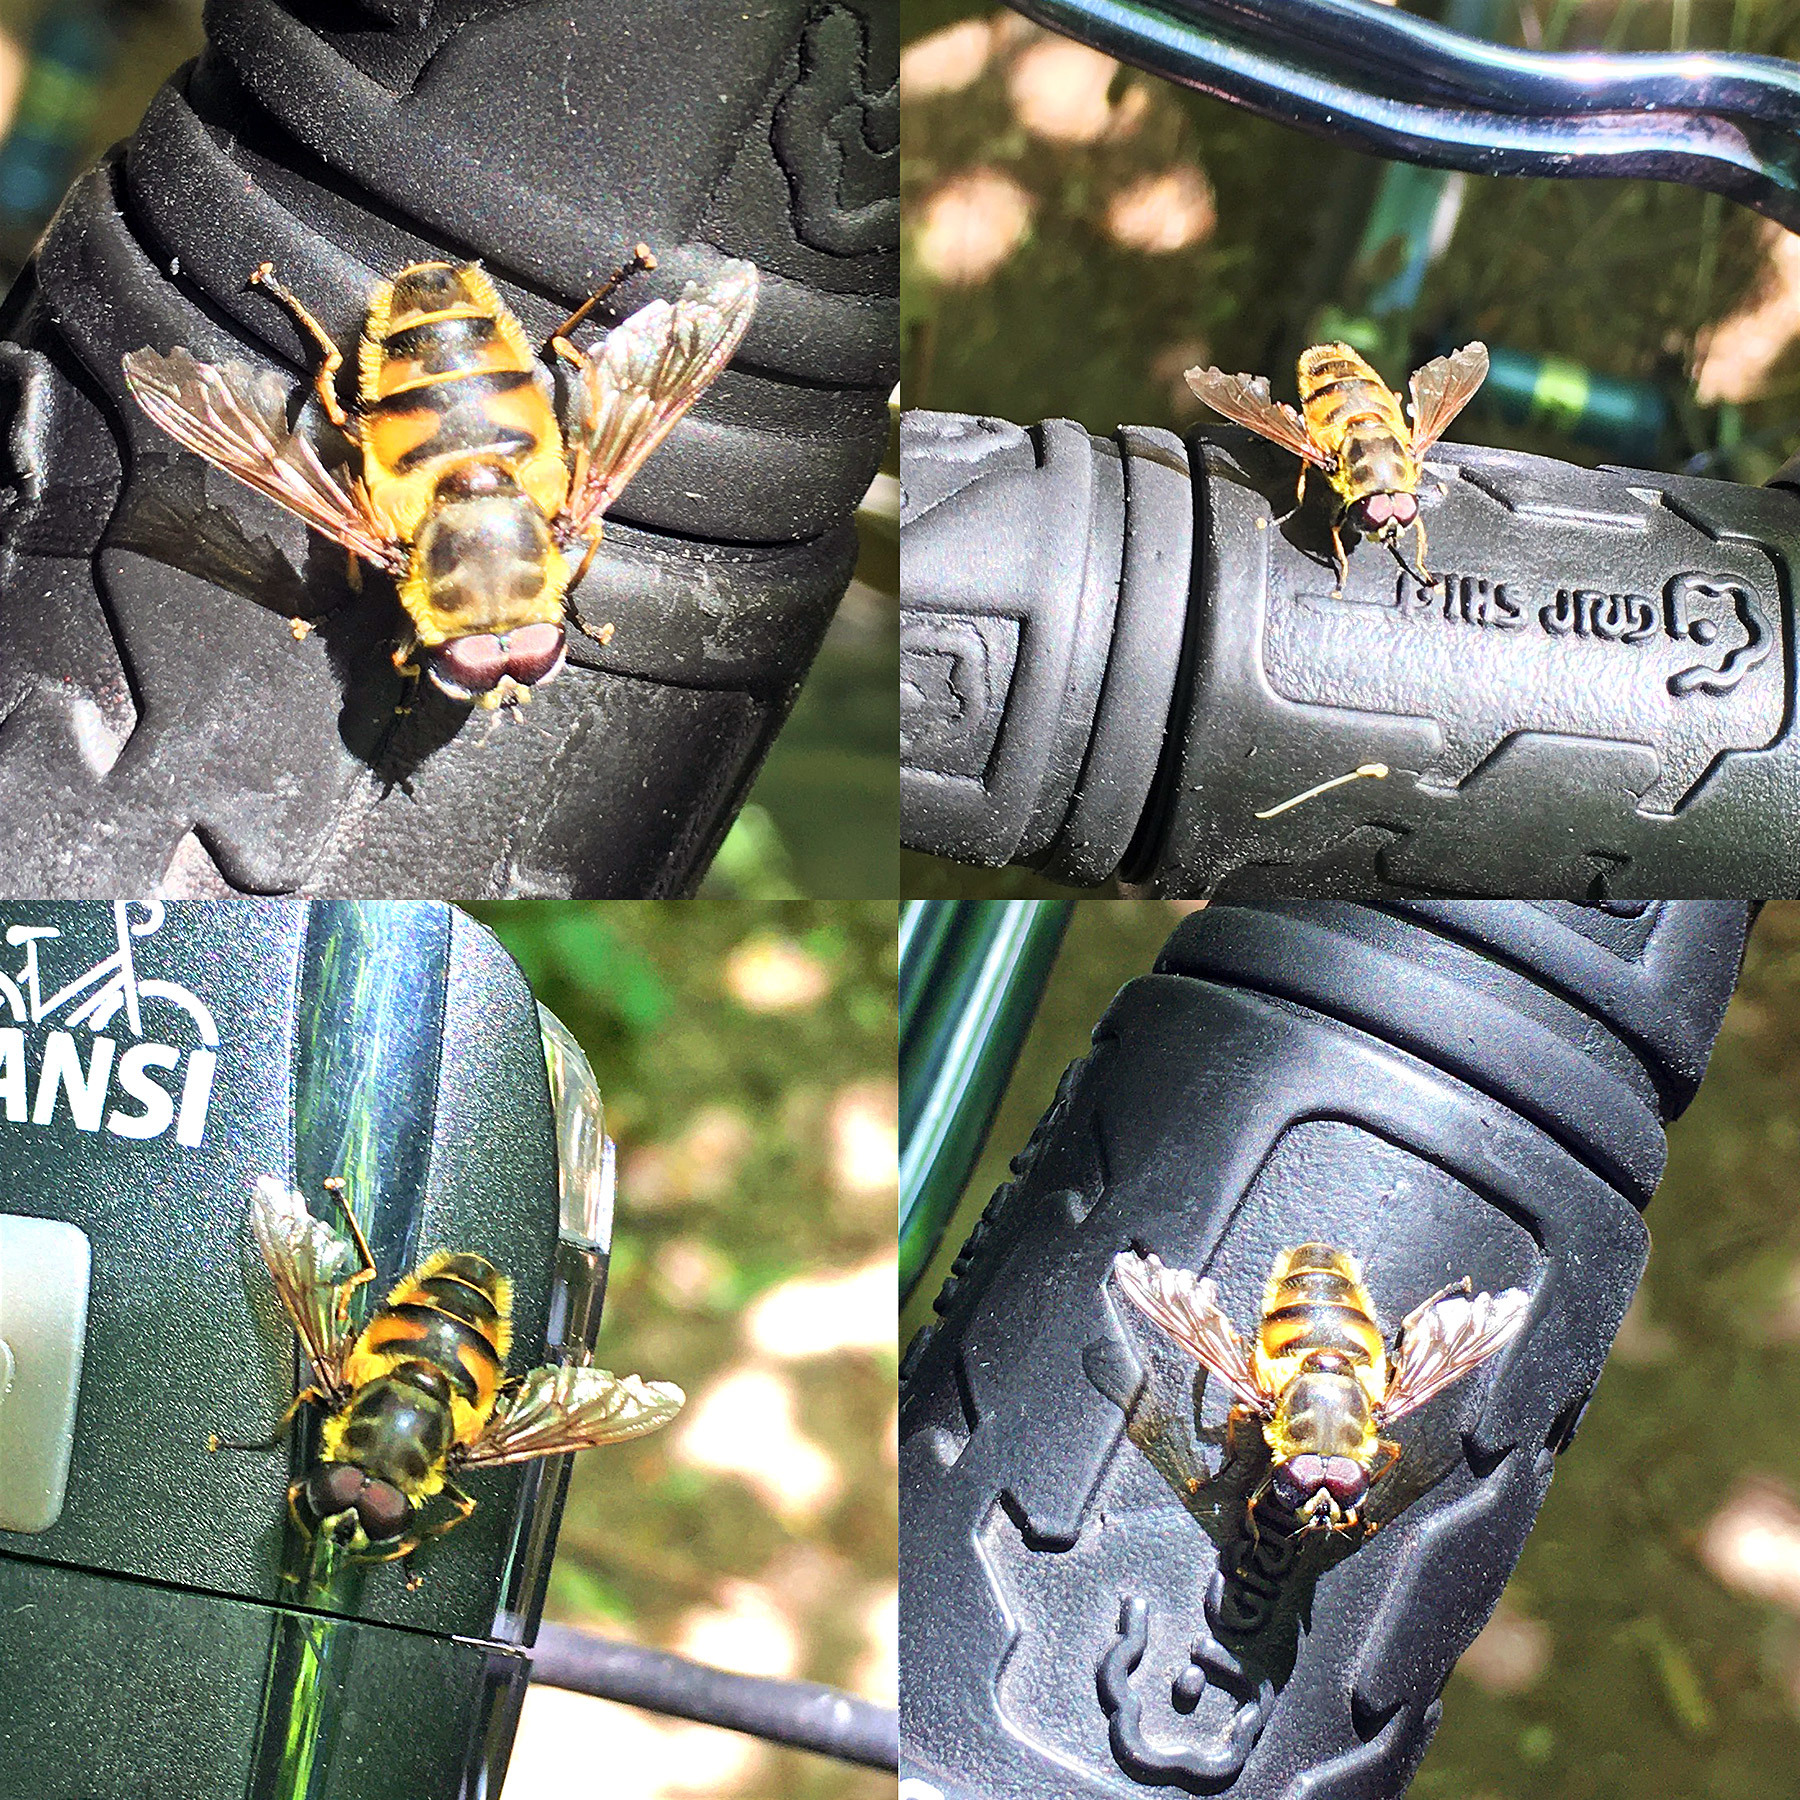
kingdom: Animalia
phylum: Arthropoda
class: Insecta
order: Diptera
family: Syrphidae
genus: Myathropa
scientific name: Myathropa florea
